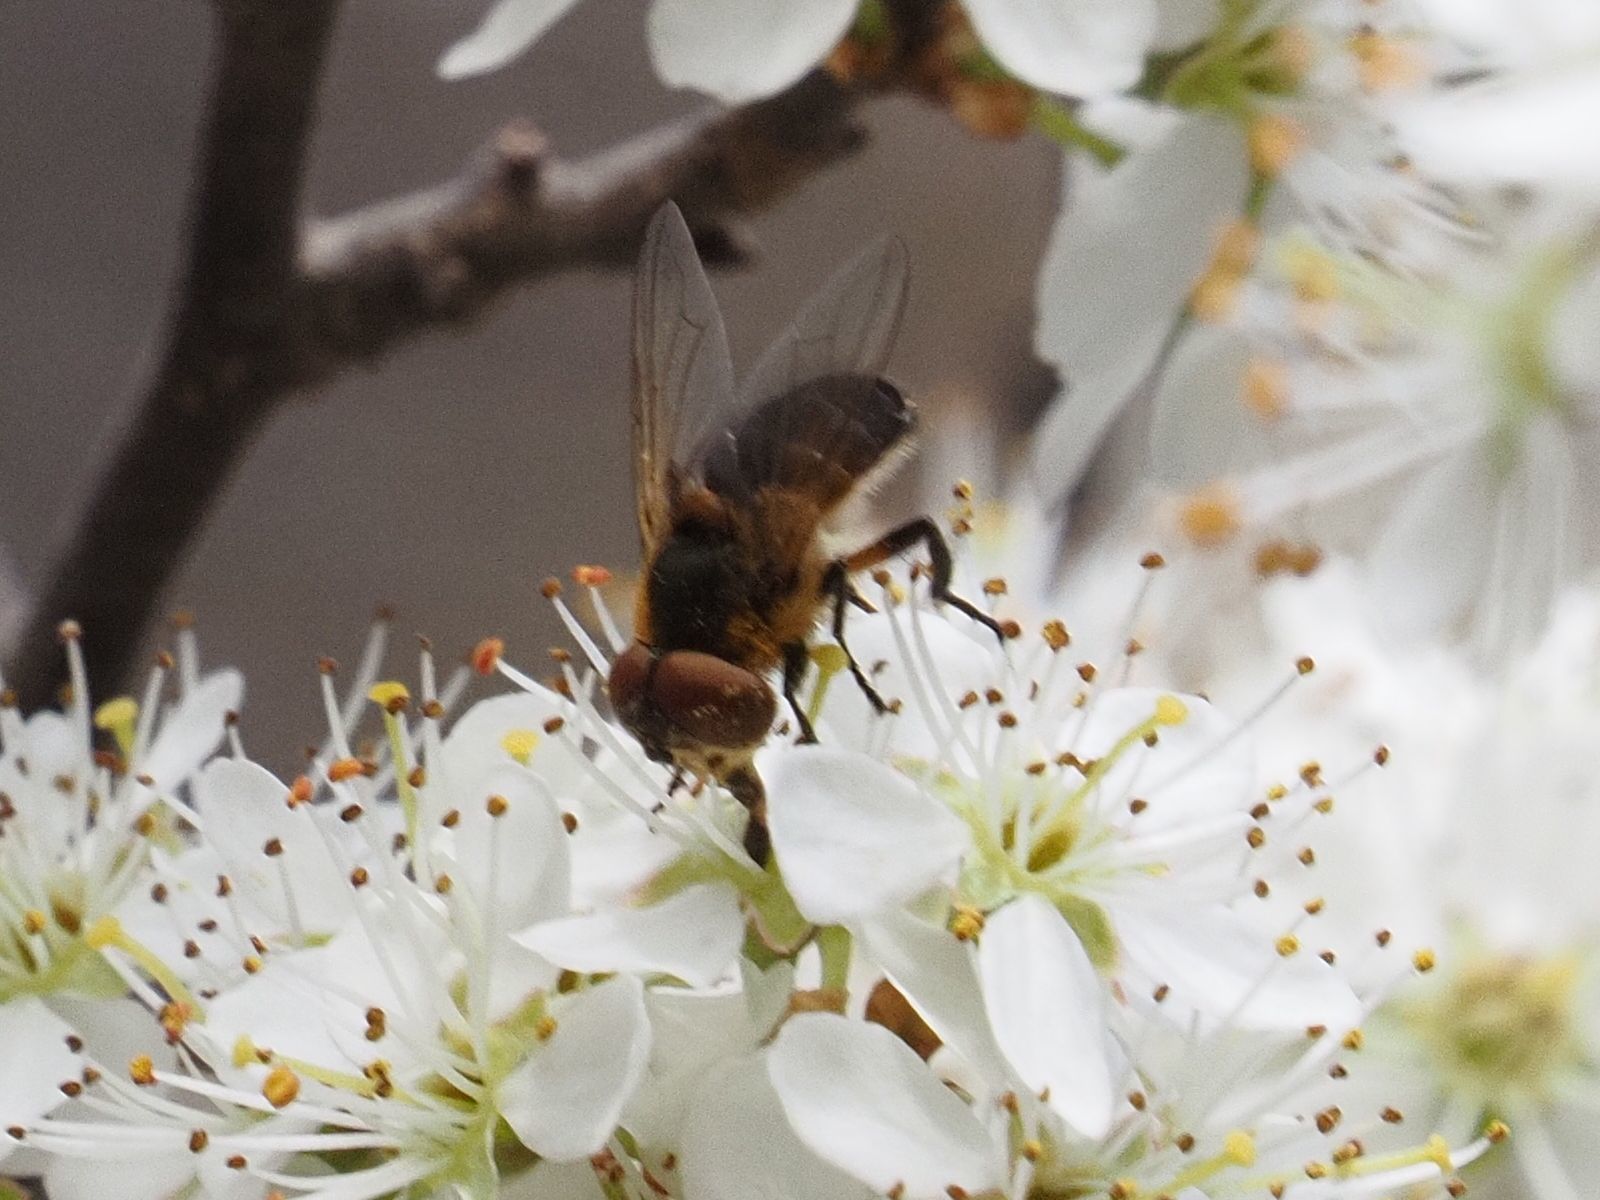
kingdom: Animalia
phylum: Arthropoda
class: Insecta
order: Diptera
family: Tachinidae
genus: Phasia
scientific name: Phasia hemiptera
